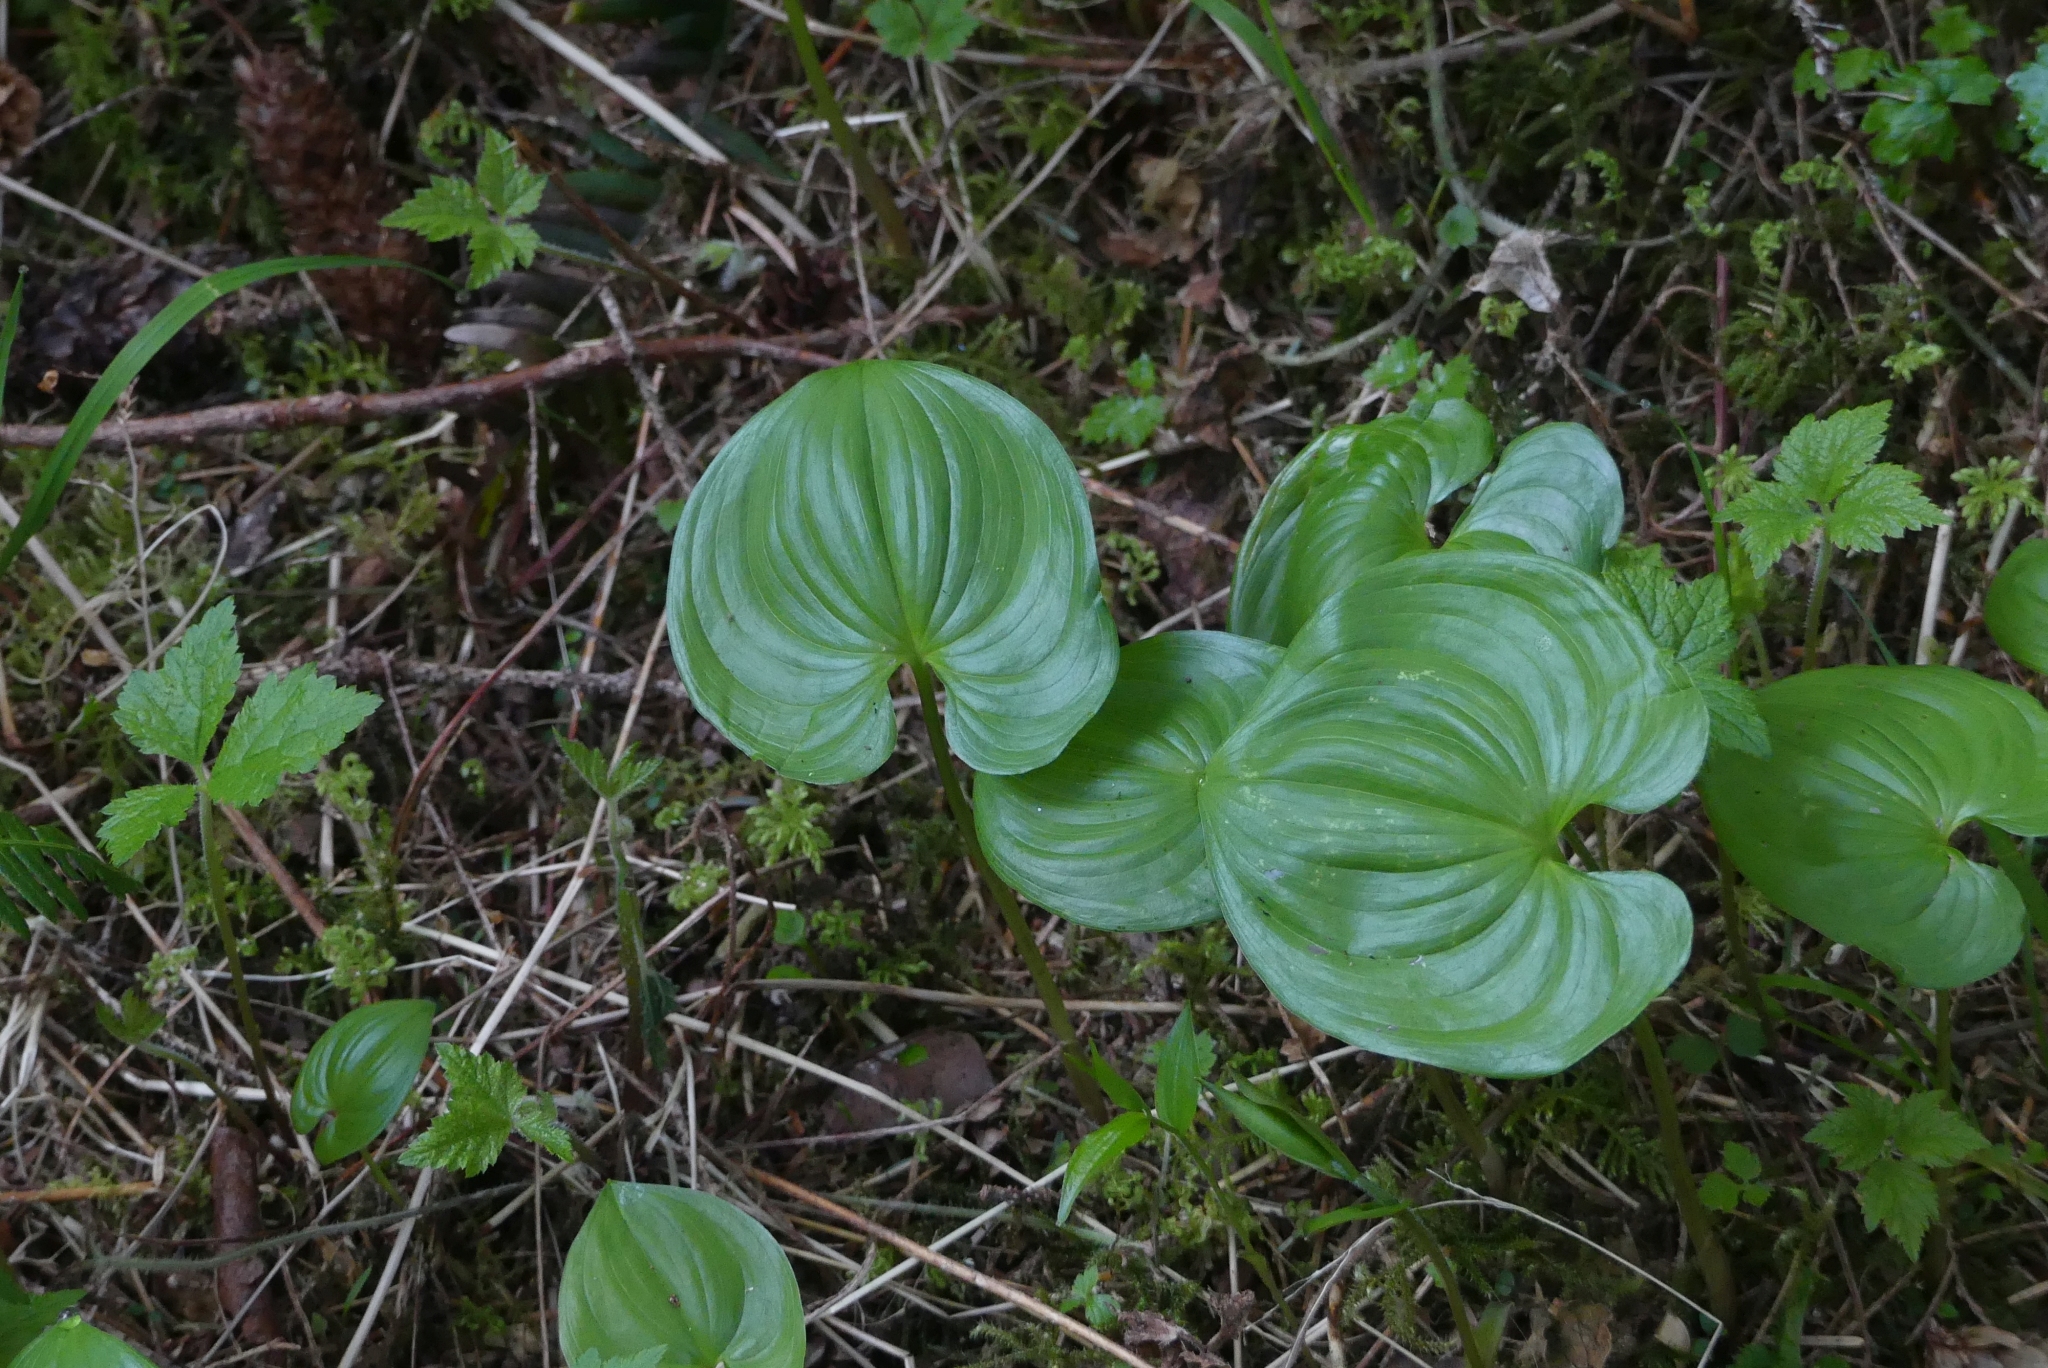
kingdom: Plantae
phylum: Tracheophyta
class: Liliopsida
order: Asparagales
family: Asparagaceae
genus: Maianthemum
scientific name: Maianthemum dilatatum
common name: False lily-of-the-valley
